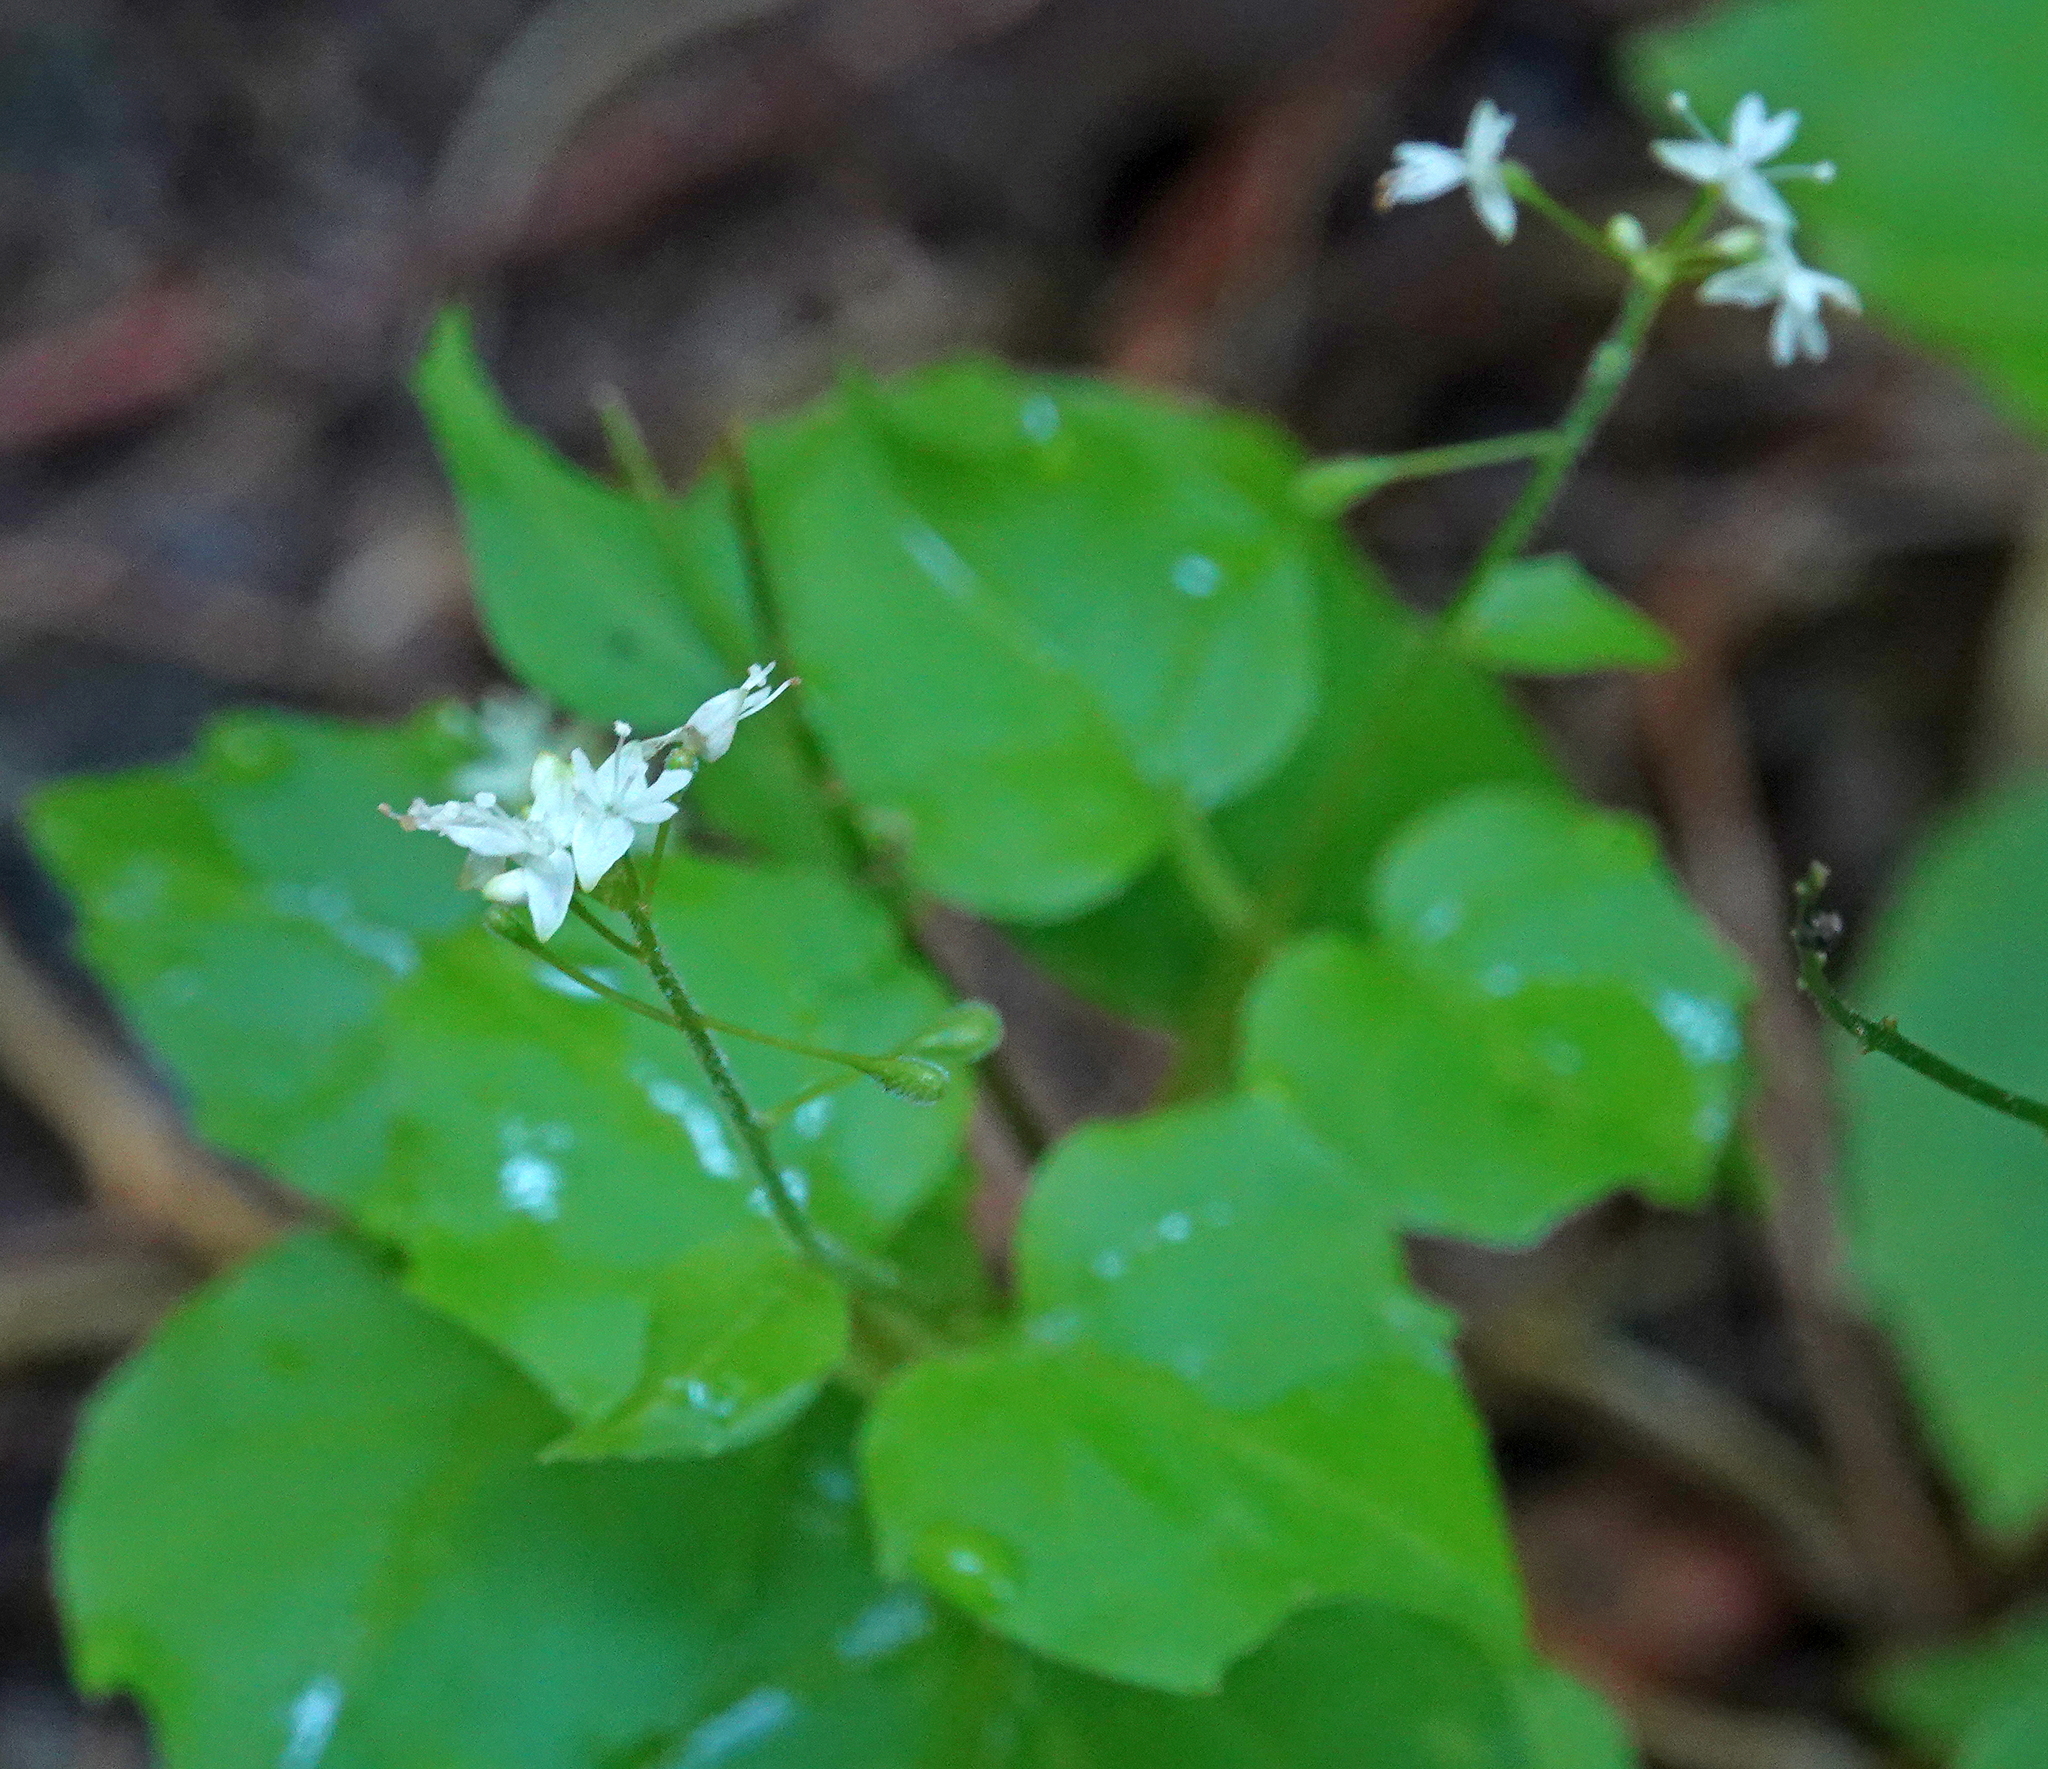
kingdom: Plantae
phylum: Tracheophyta
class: Magnoliopsida
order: Myrtales
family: Onagraceae
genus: Circaea
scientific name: Circaea alpina
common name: Alpine enchanter's-nightshade
